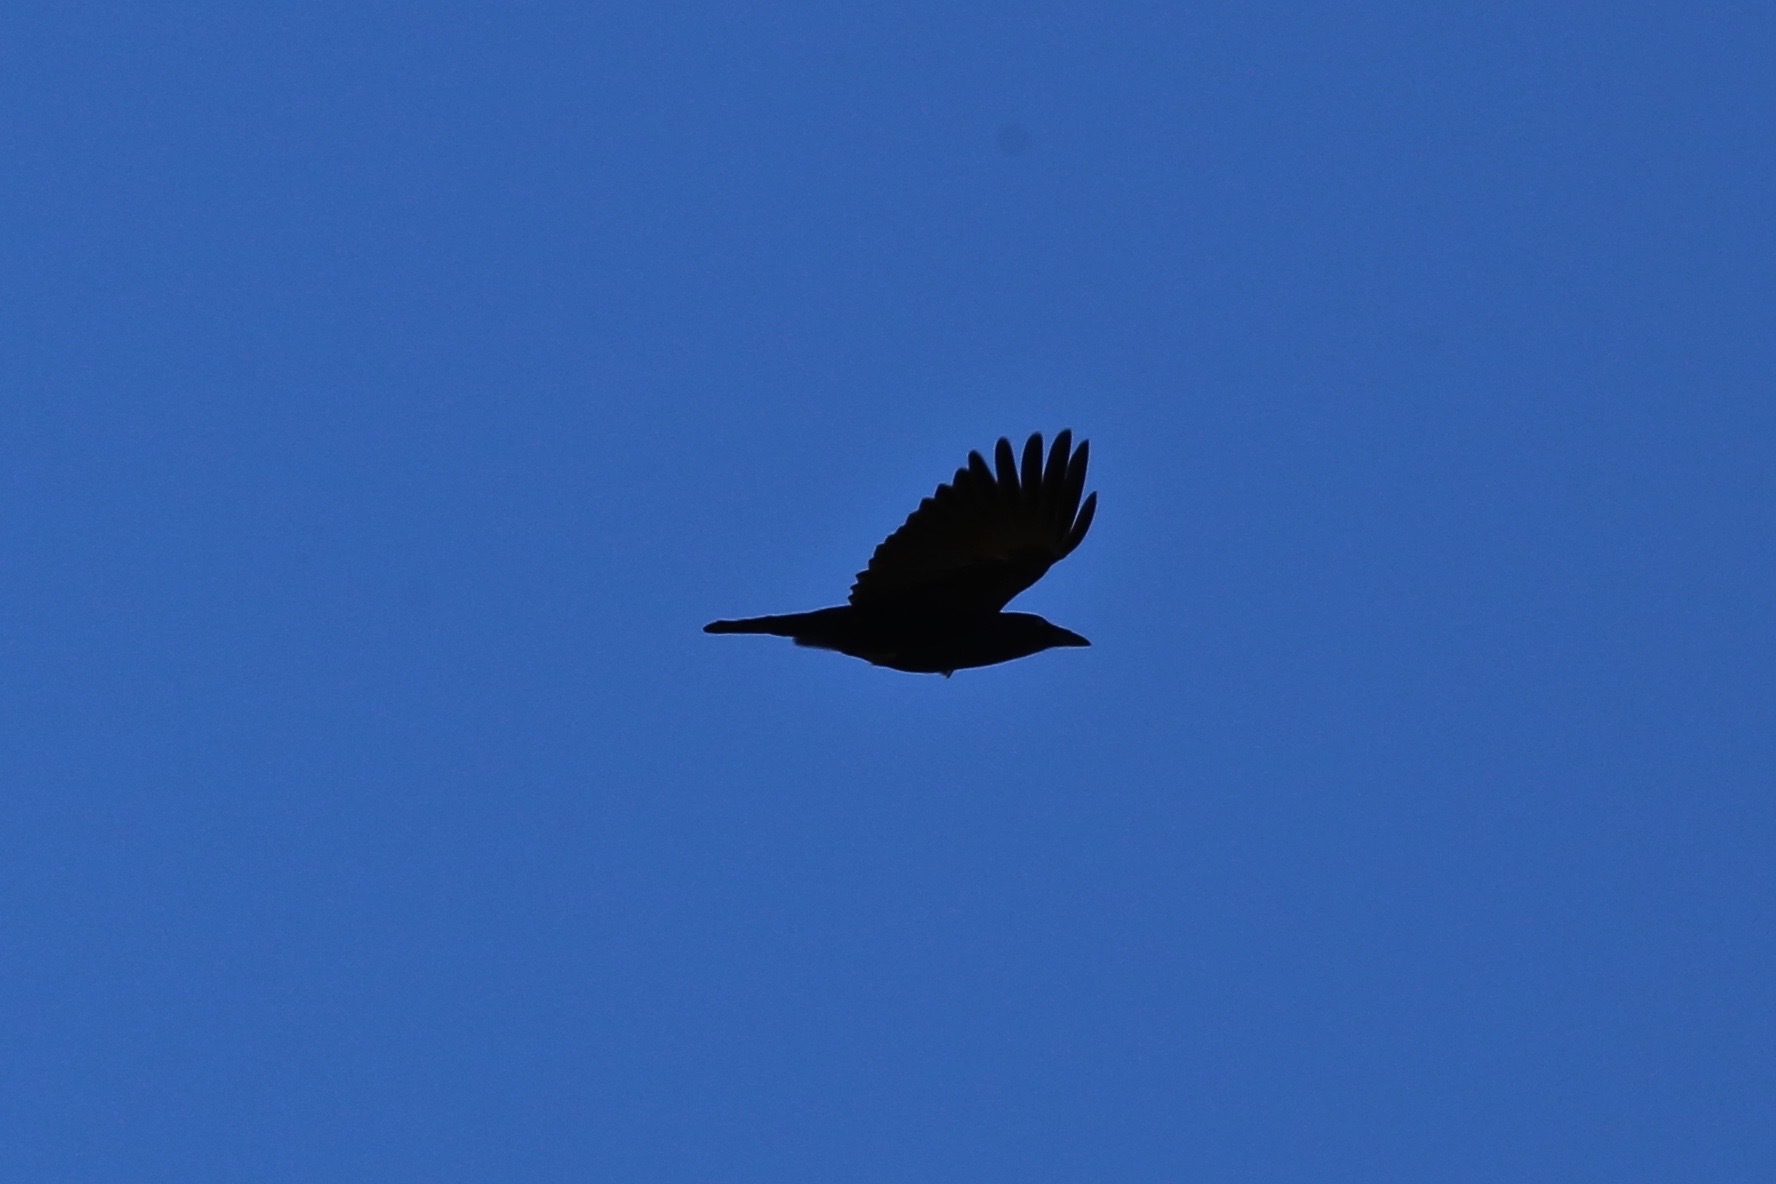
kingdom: Animalia
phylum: Chordata
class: Aves
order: Passeriformes
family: Corvidae
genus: Corvus
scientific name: Corvus brachyrhynchos
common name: American crow
